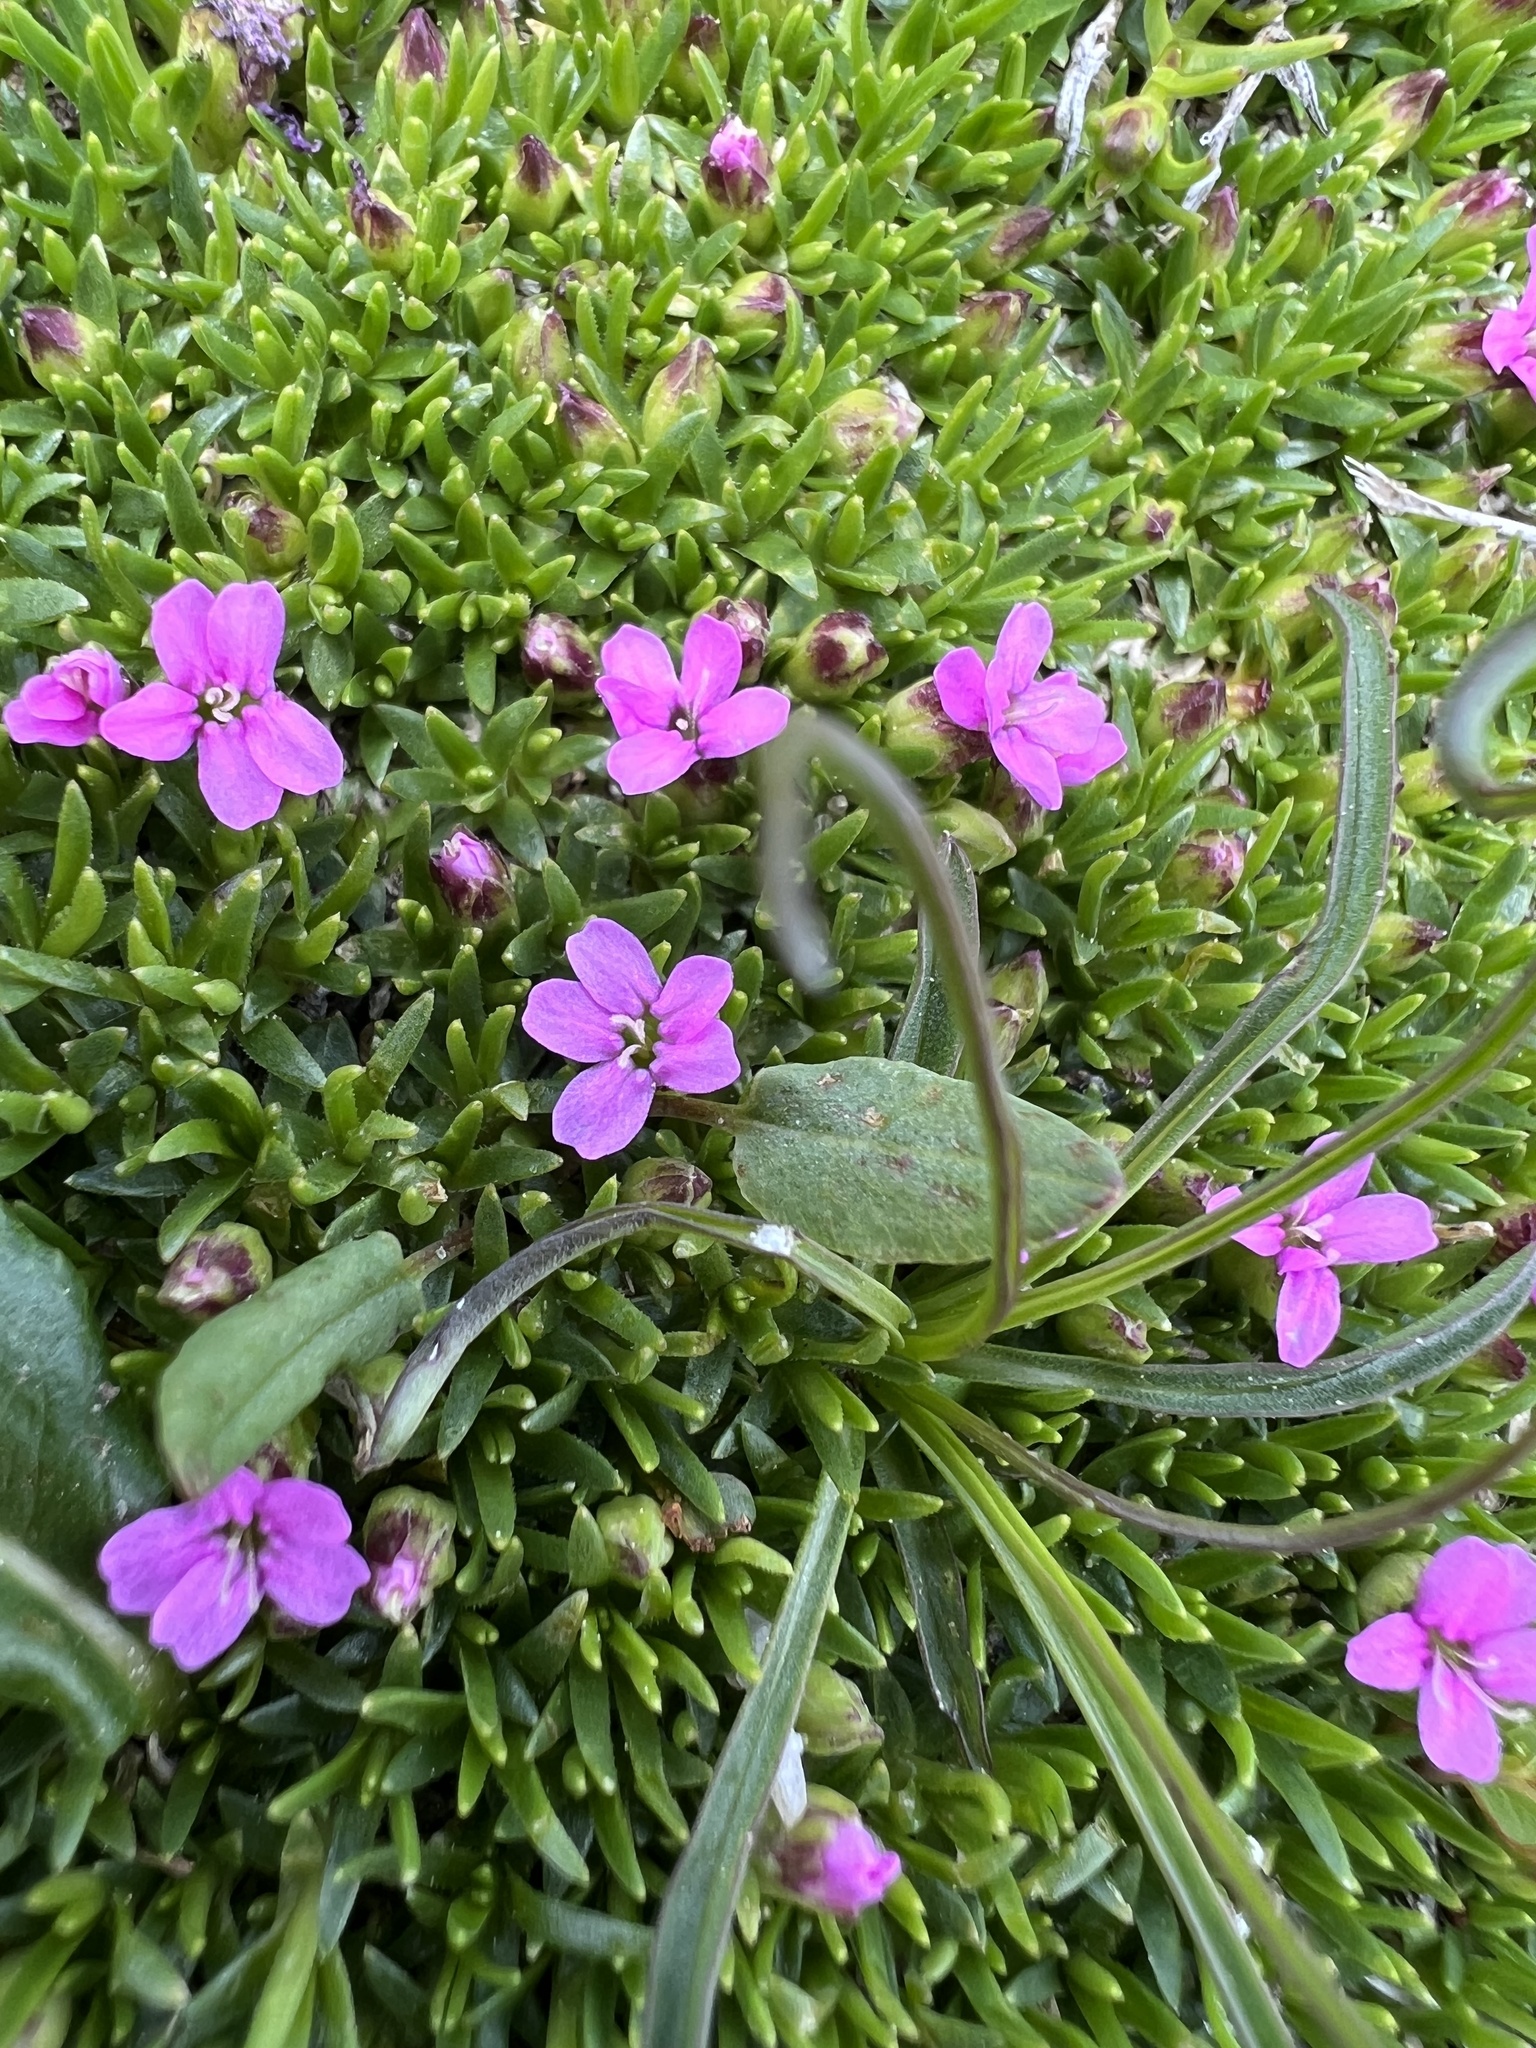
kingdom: Plantae
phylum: Tracheophyta
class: Magnoliopsida
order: Caryophyllales
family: Caryophyllaceae
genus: Silene
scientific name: Silene acaulis
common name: Moss campion
